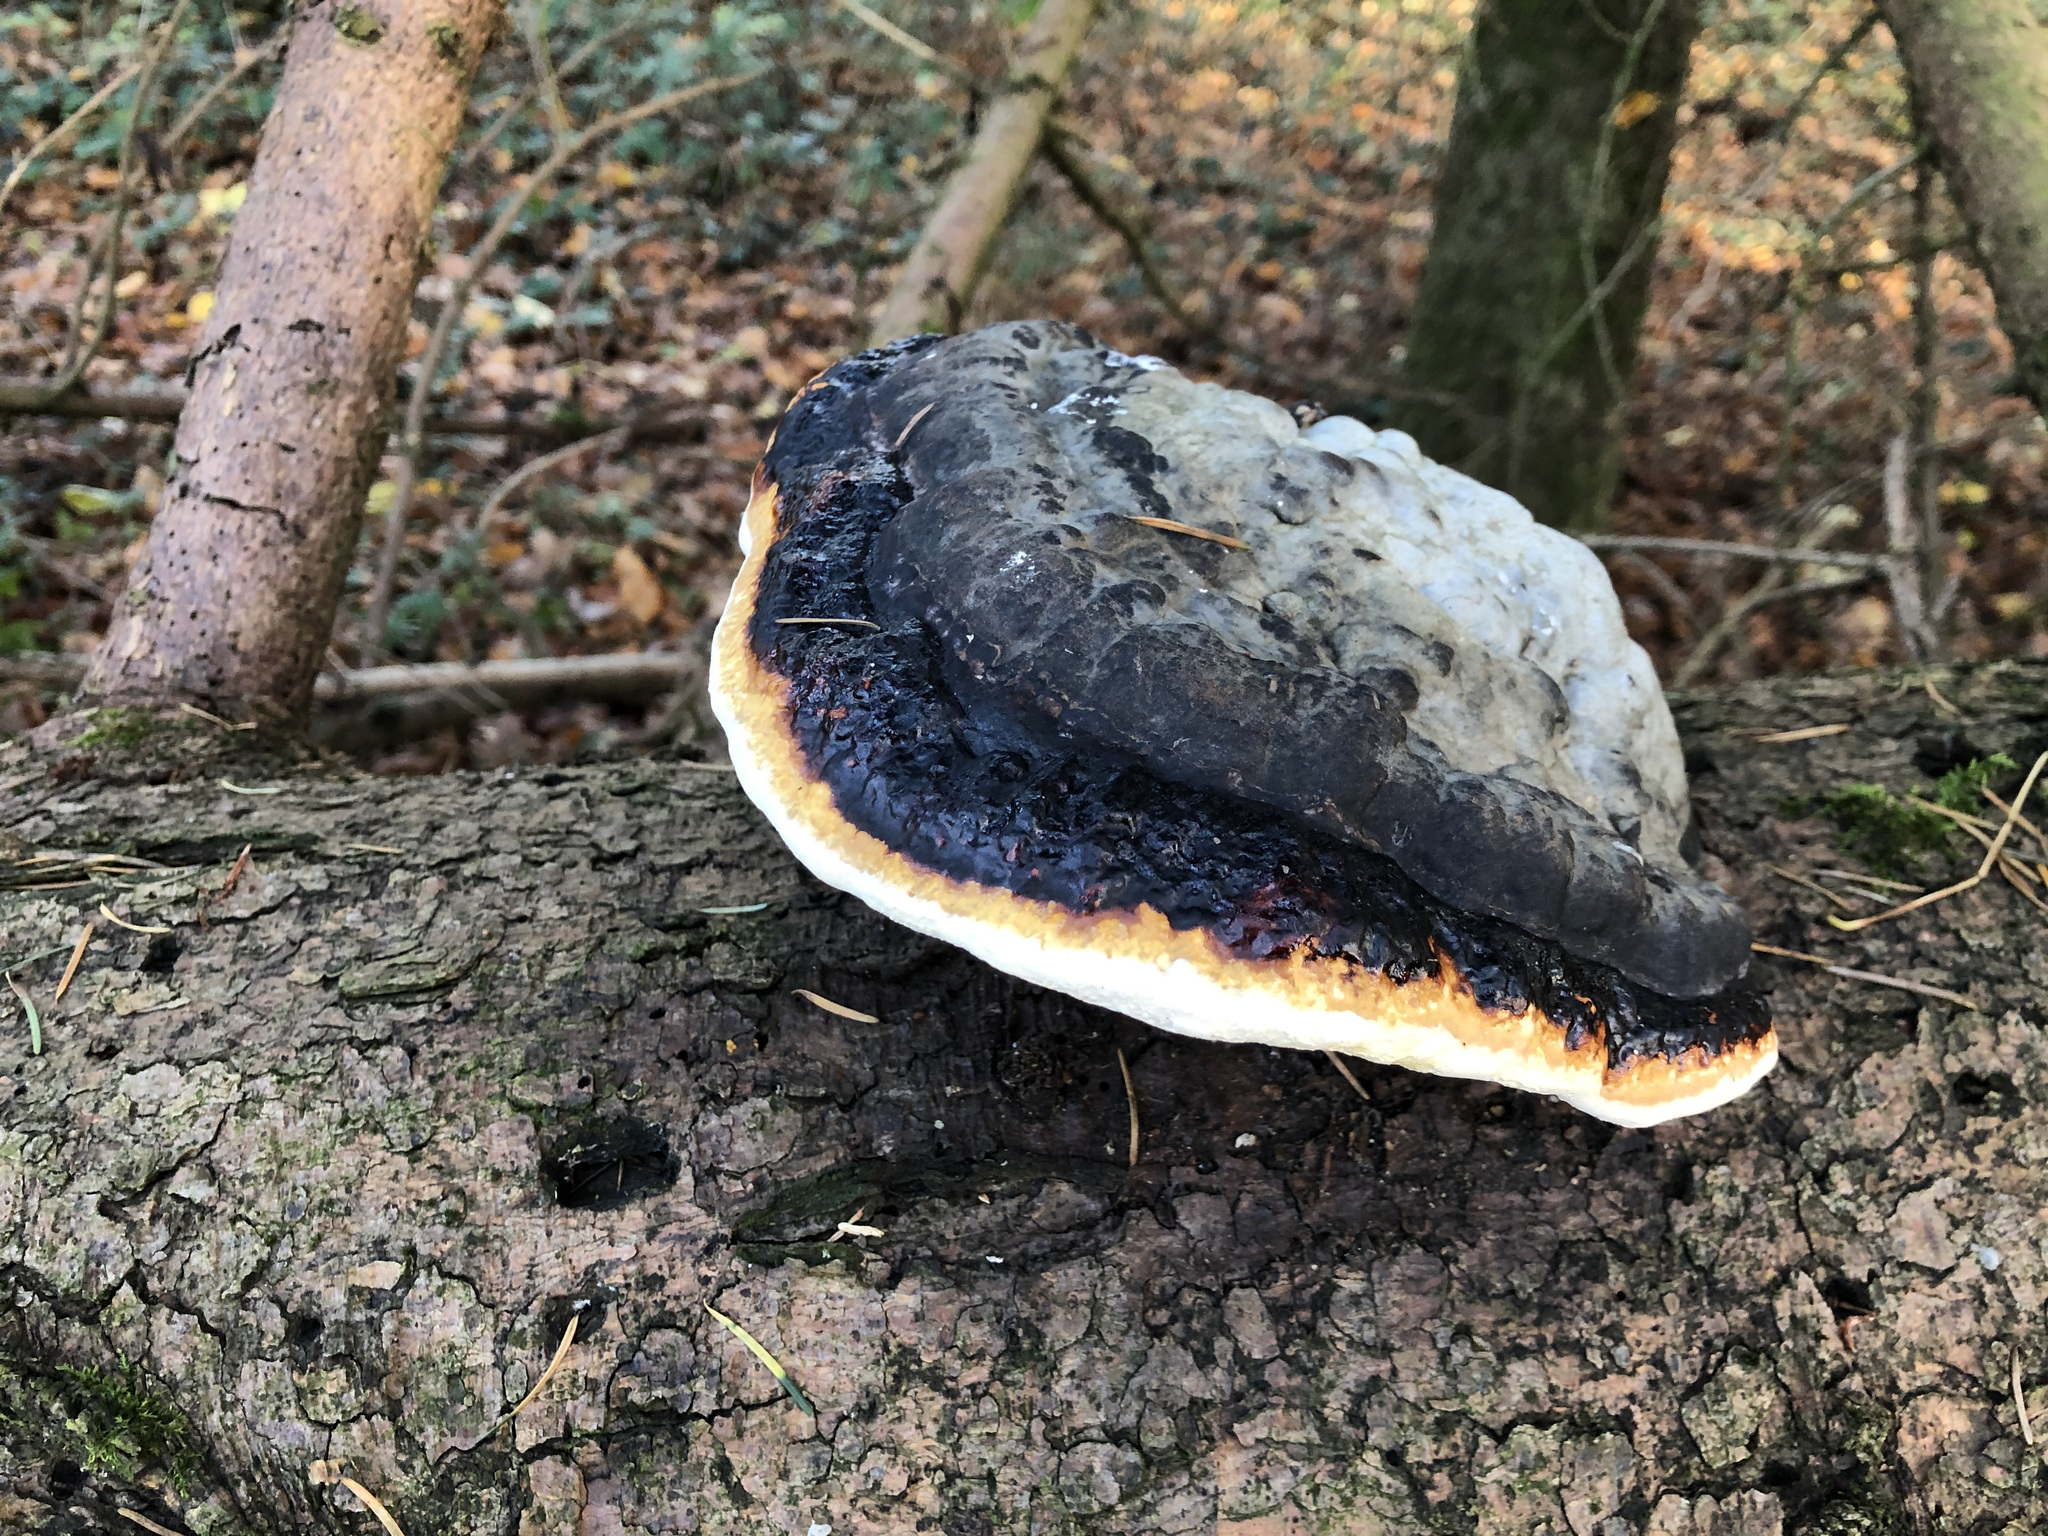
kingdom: Fungi
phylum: Basidiomycota
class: Agaricomycetes
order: Polyporales
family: Fomitopsidaceae
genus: Fomitopsis
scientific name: Fomitopsis pinicola
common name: Red-belted bracket
